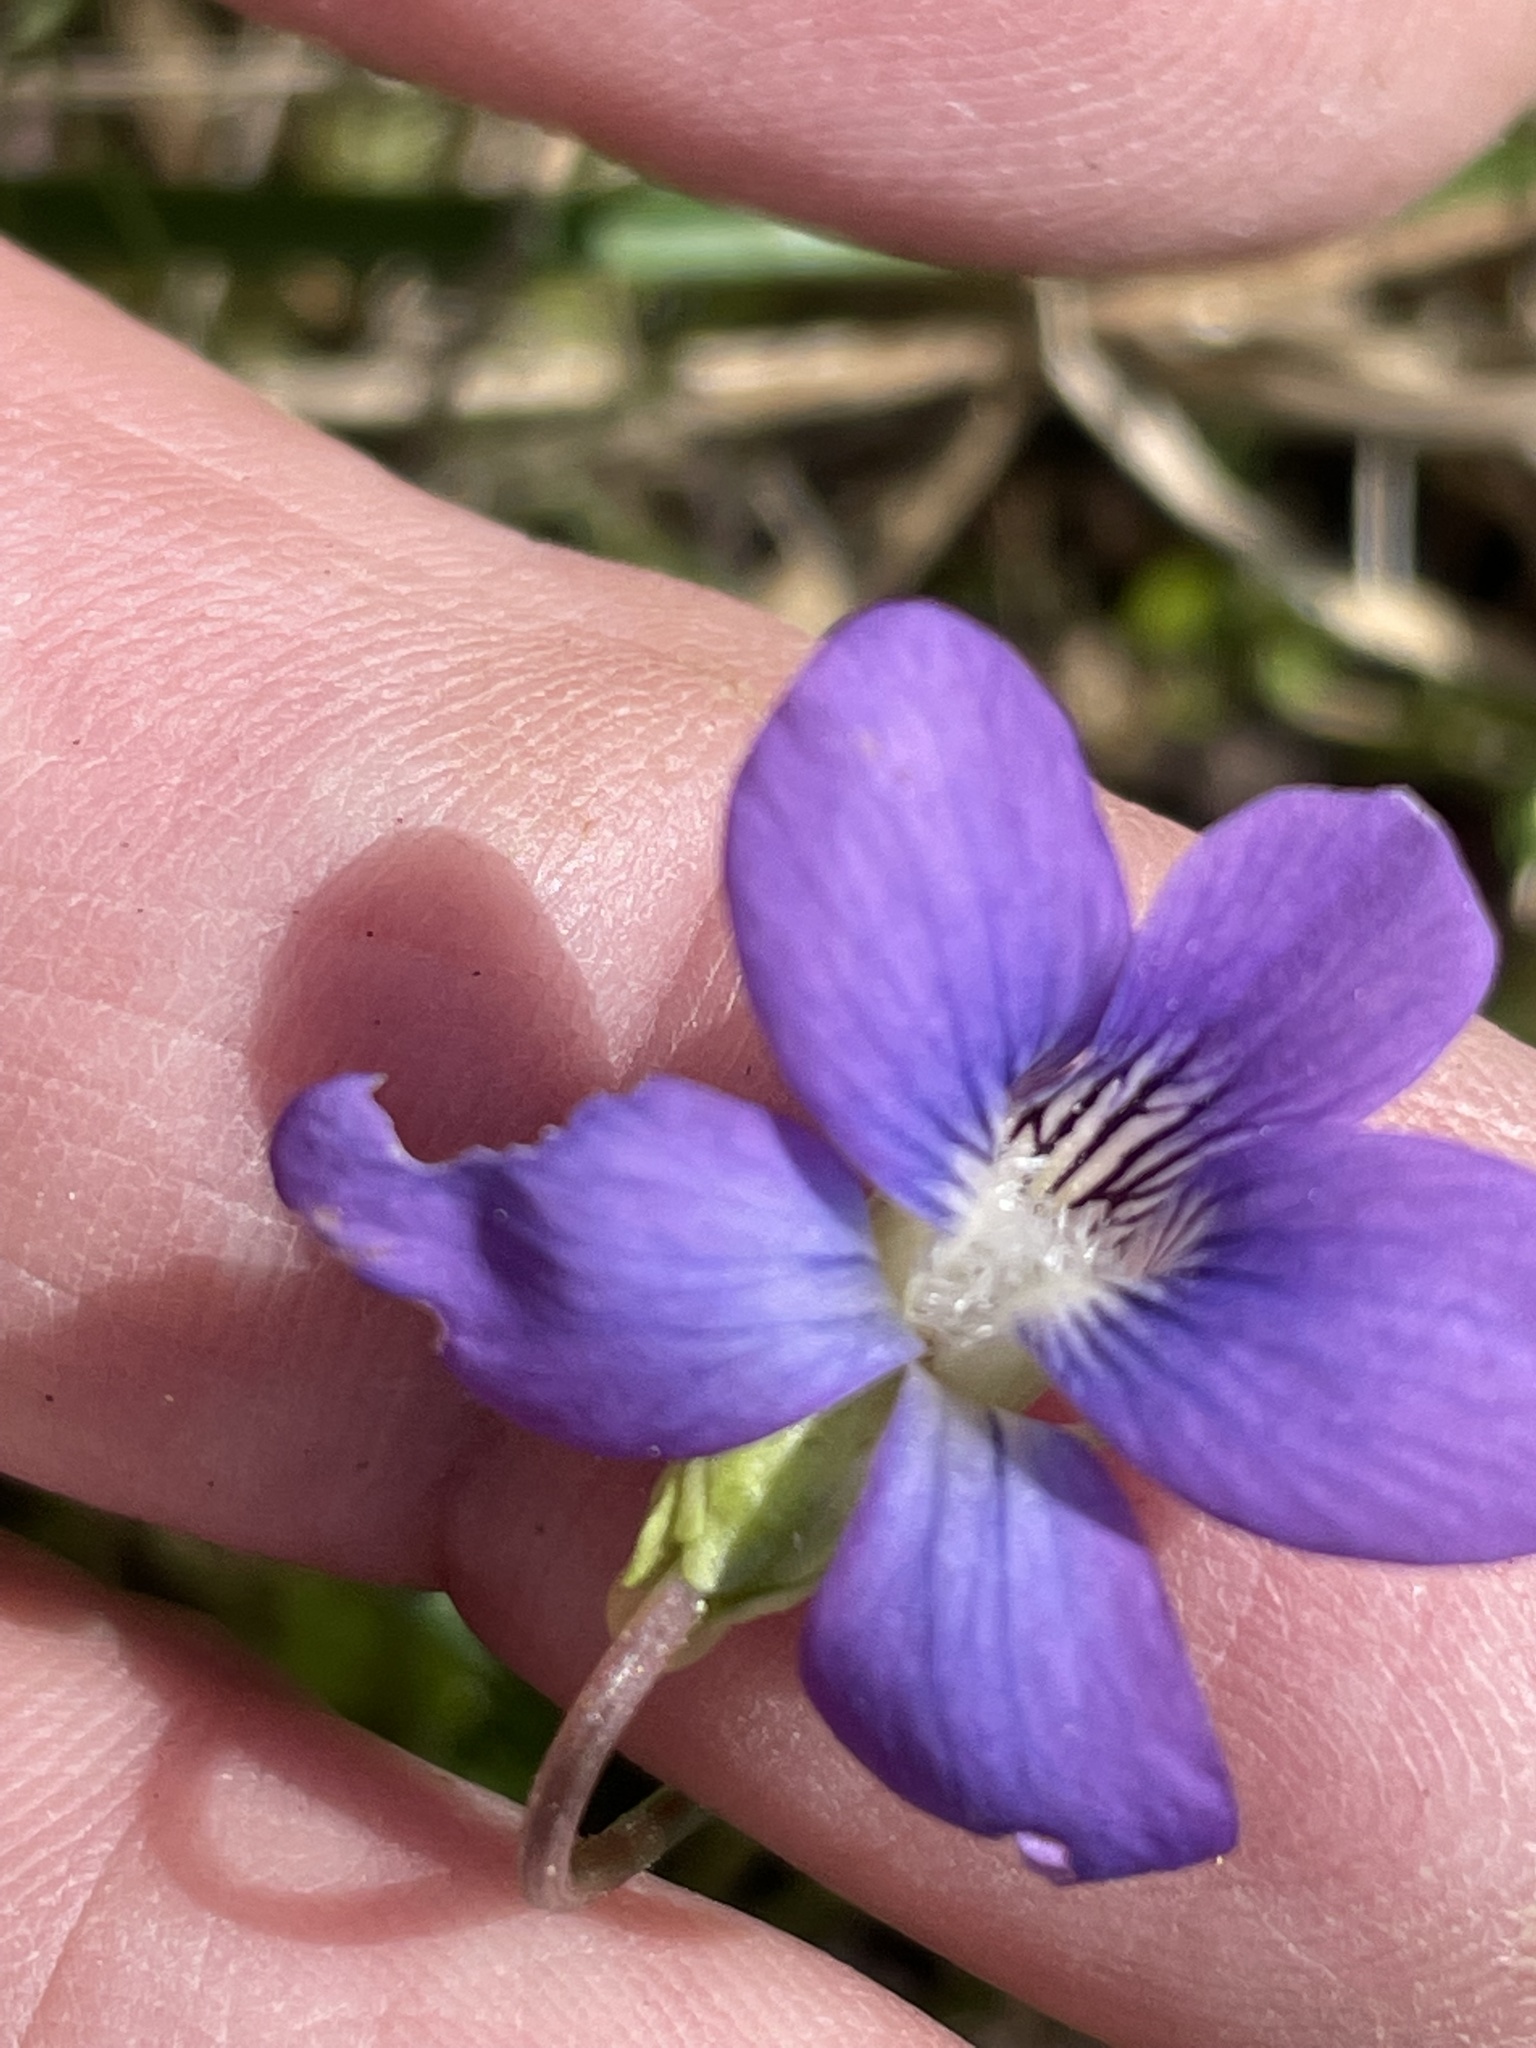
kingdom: Plantae
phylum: Tracheophyta
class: Magnoliopsida
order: Malpighiales
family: Violaceae
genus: Viola
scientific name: Viola sororia
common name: Dooryard violet
